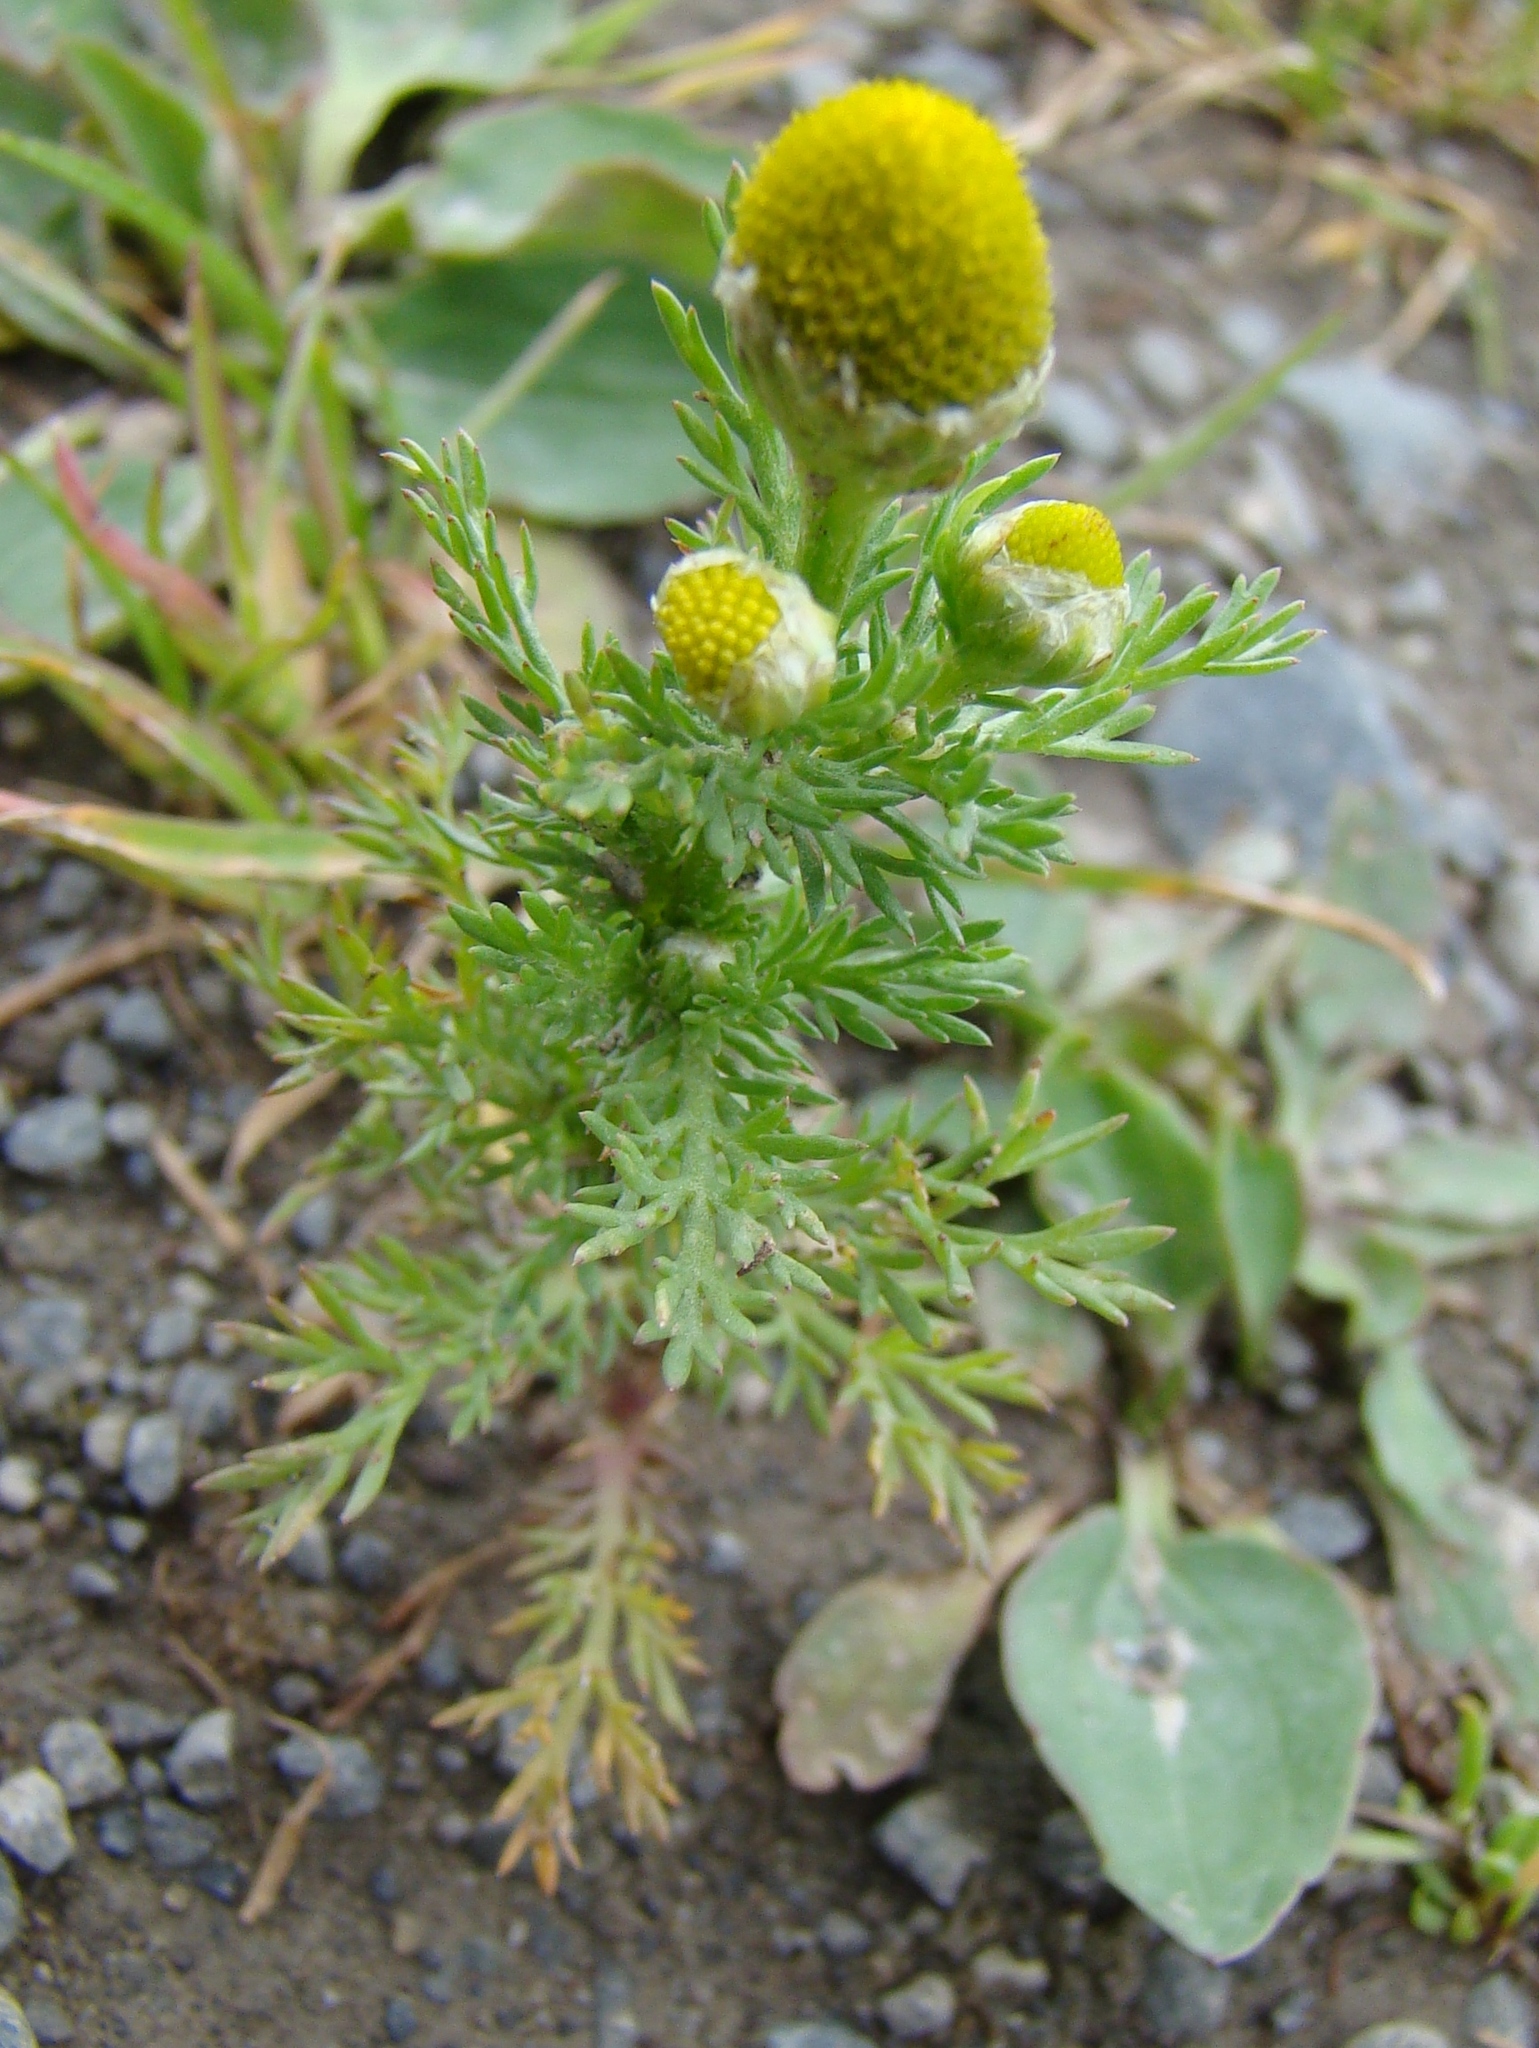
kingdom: Plantae
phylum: Tracheophyta
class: Magnoliopsida
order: Asterales
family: Asteraceae
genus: Matricaria
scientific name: Matricaria discoidea
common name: Disc mayweed
